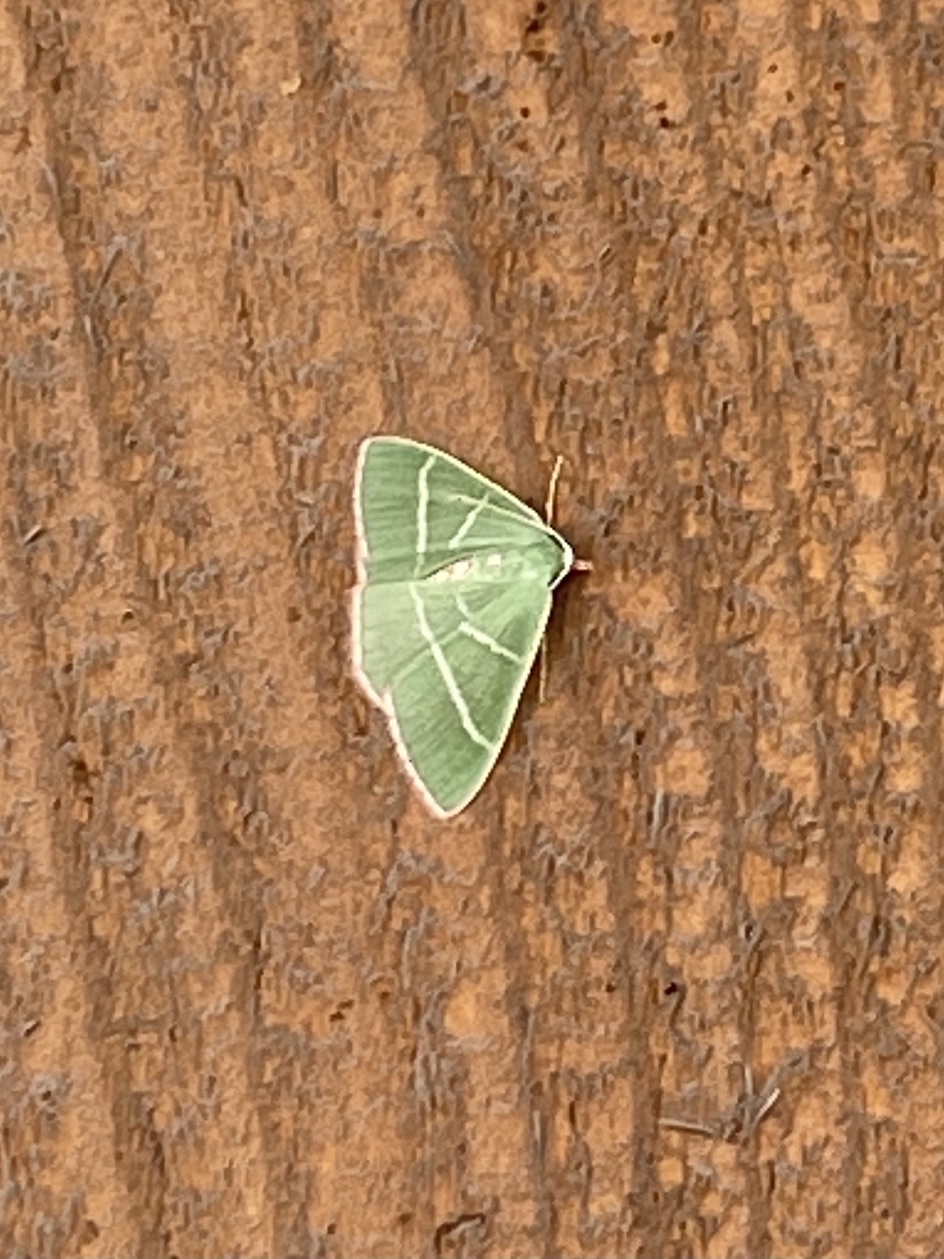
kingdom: Animalia
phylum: Arthropoda
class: Insecta
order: Lepidoptera
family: Geometridae
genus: Nemoria
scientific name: Nemoria obliqua
